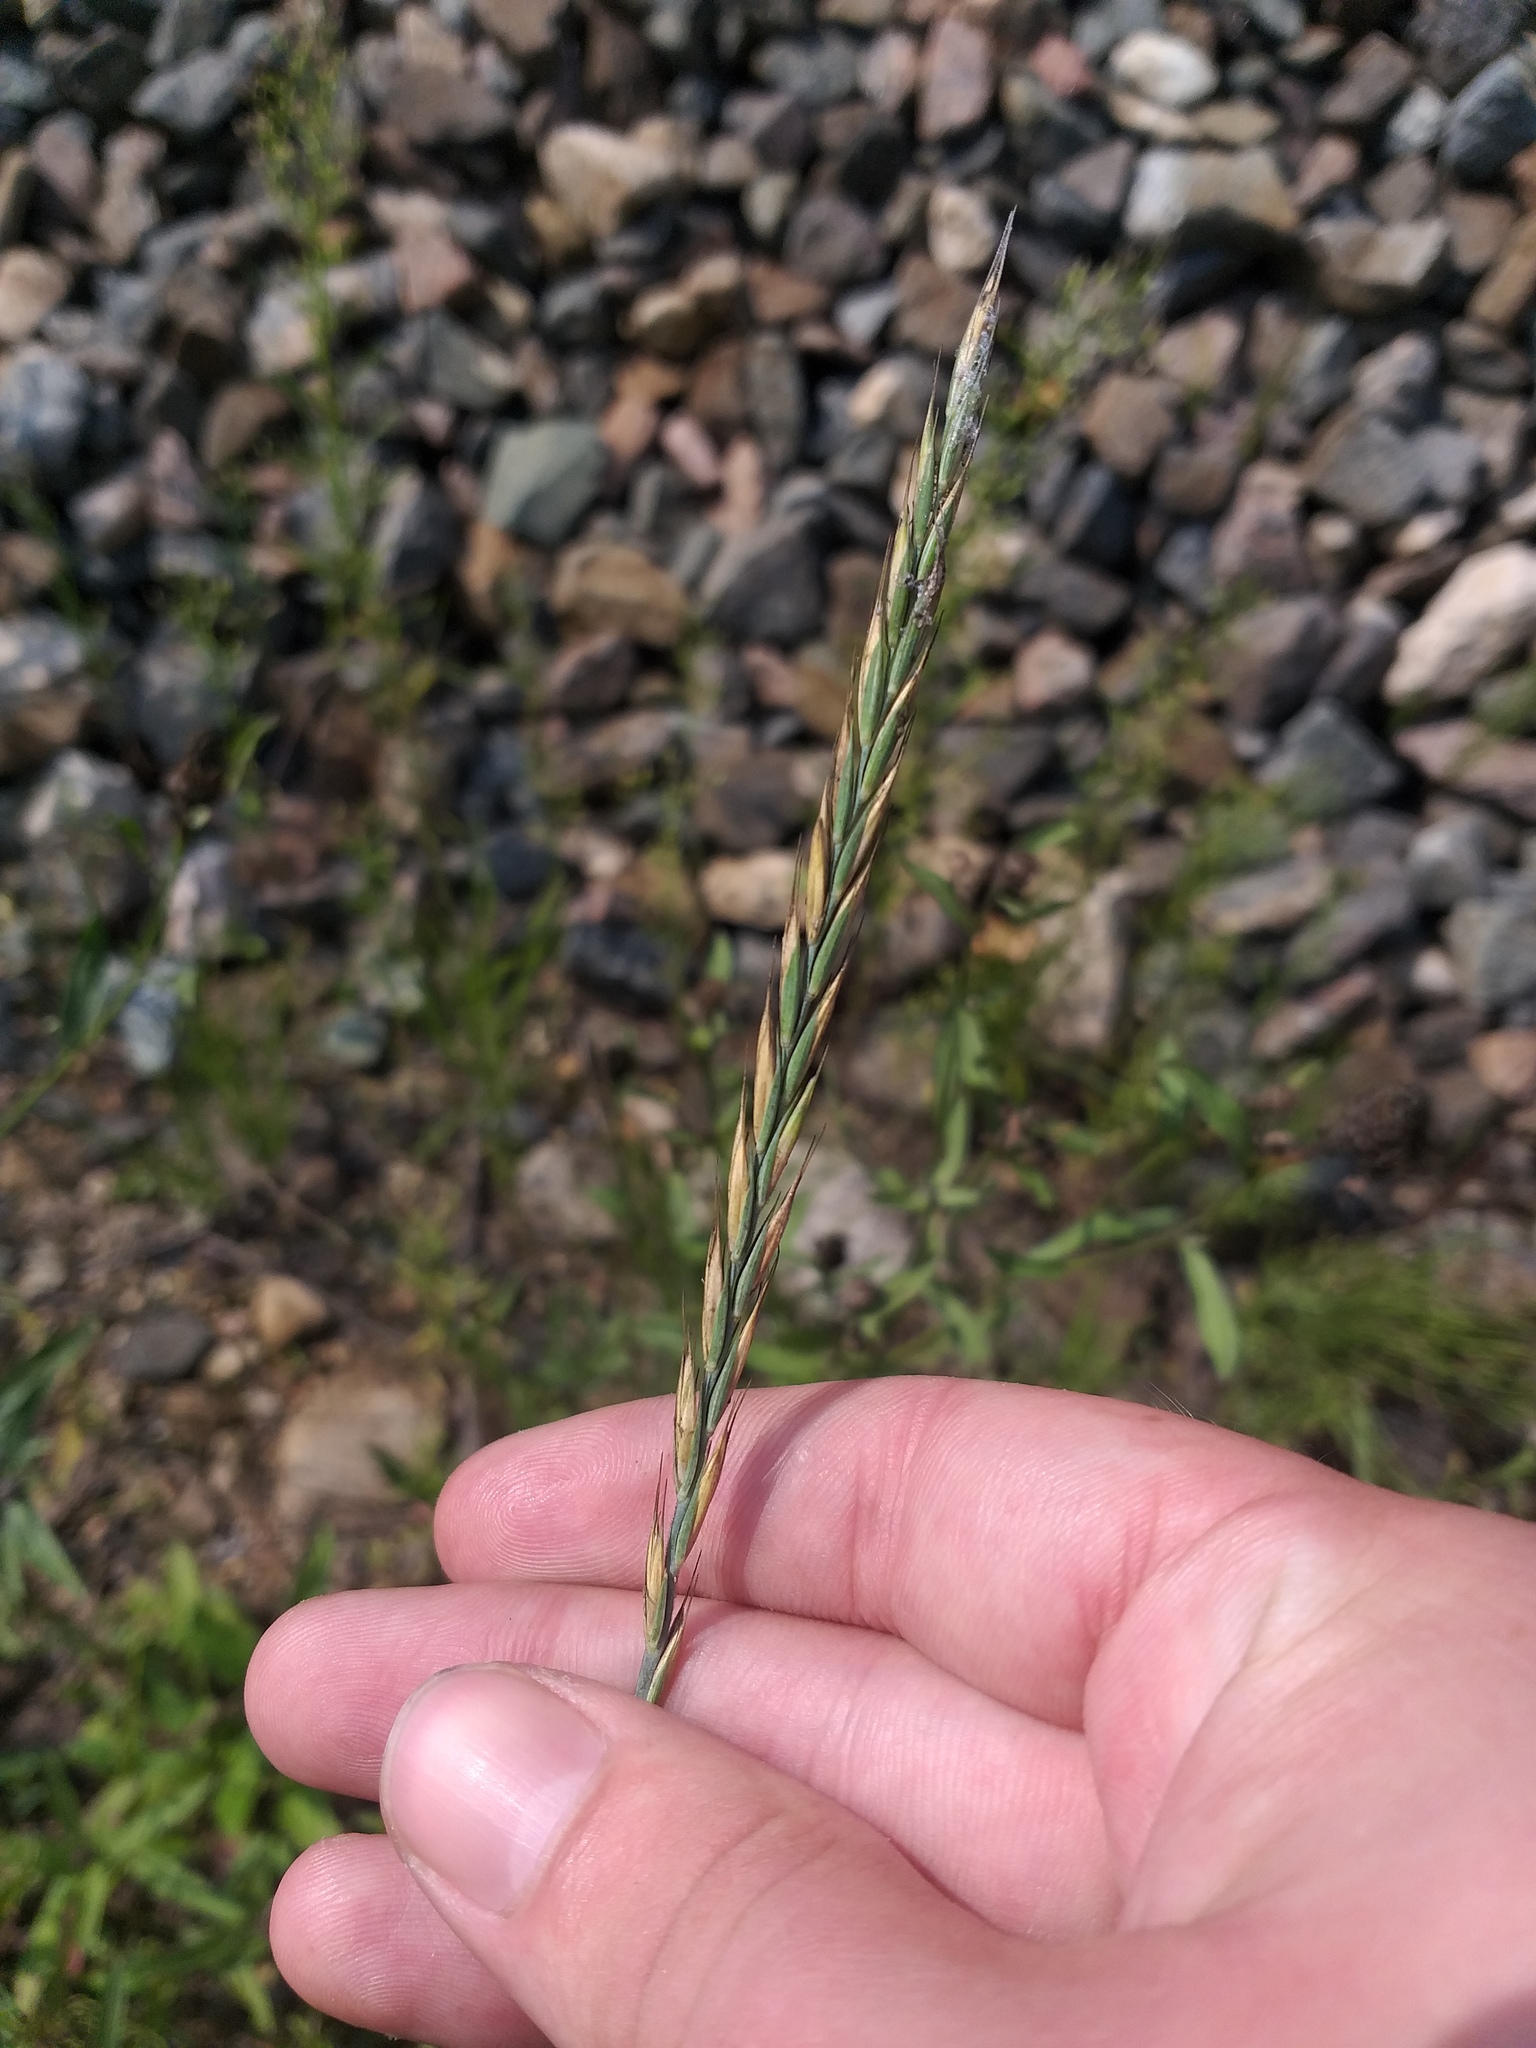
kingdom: Plantae
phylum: Tracheophyta
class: Liliopsida
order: Poales
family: Poaceae
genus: Elymus
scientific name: Elymus repens
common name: Quackgrass
